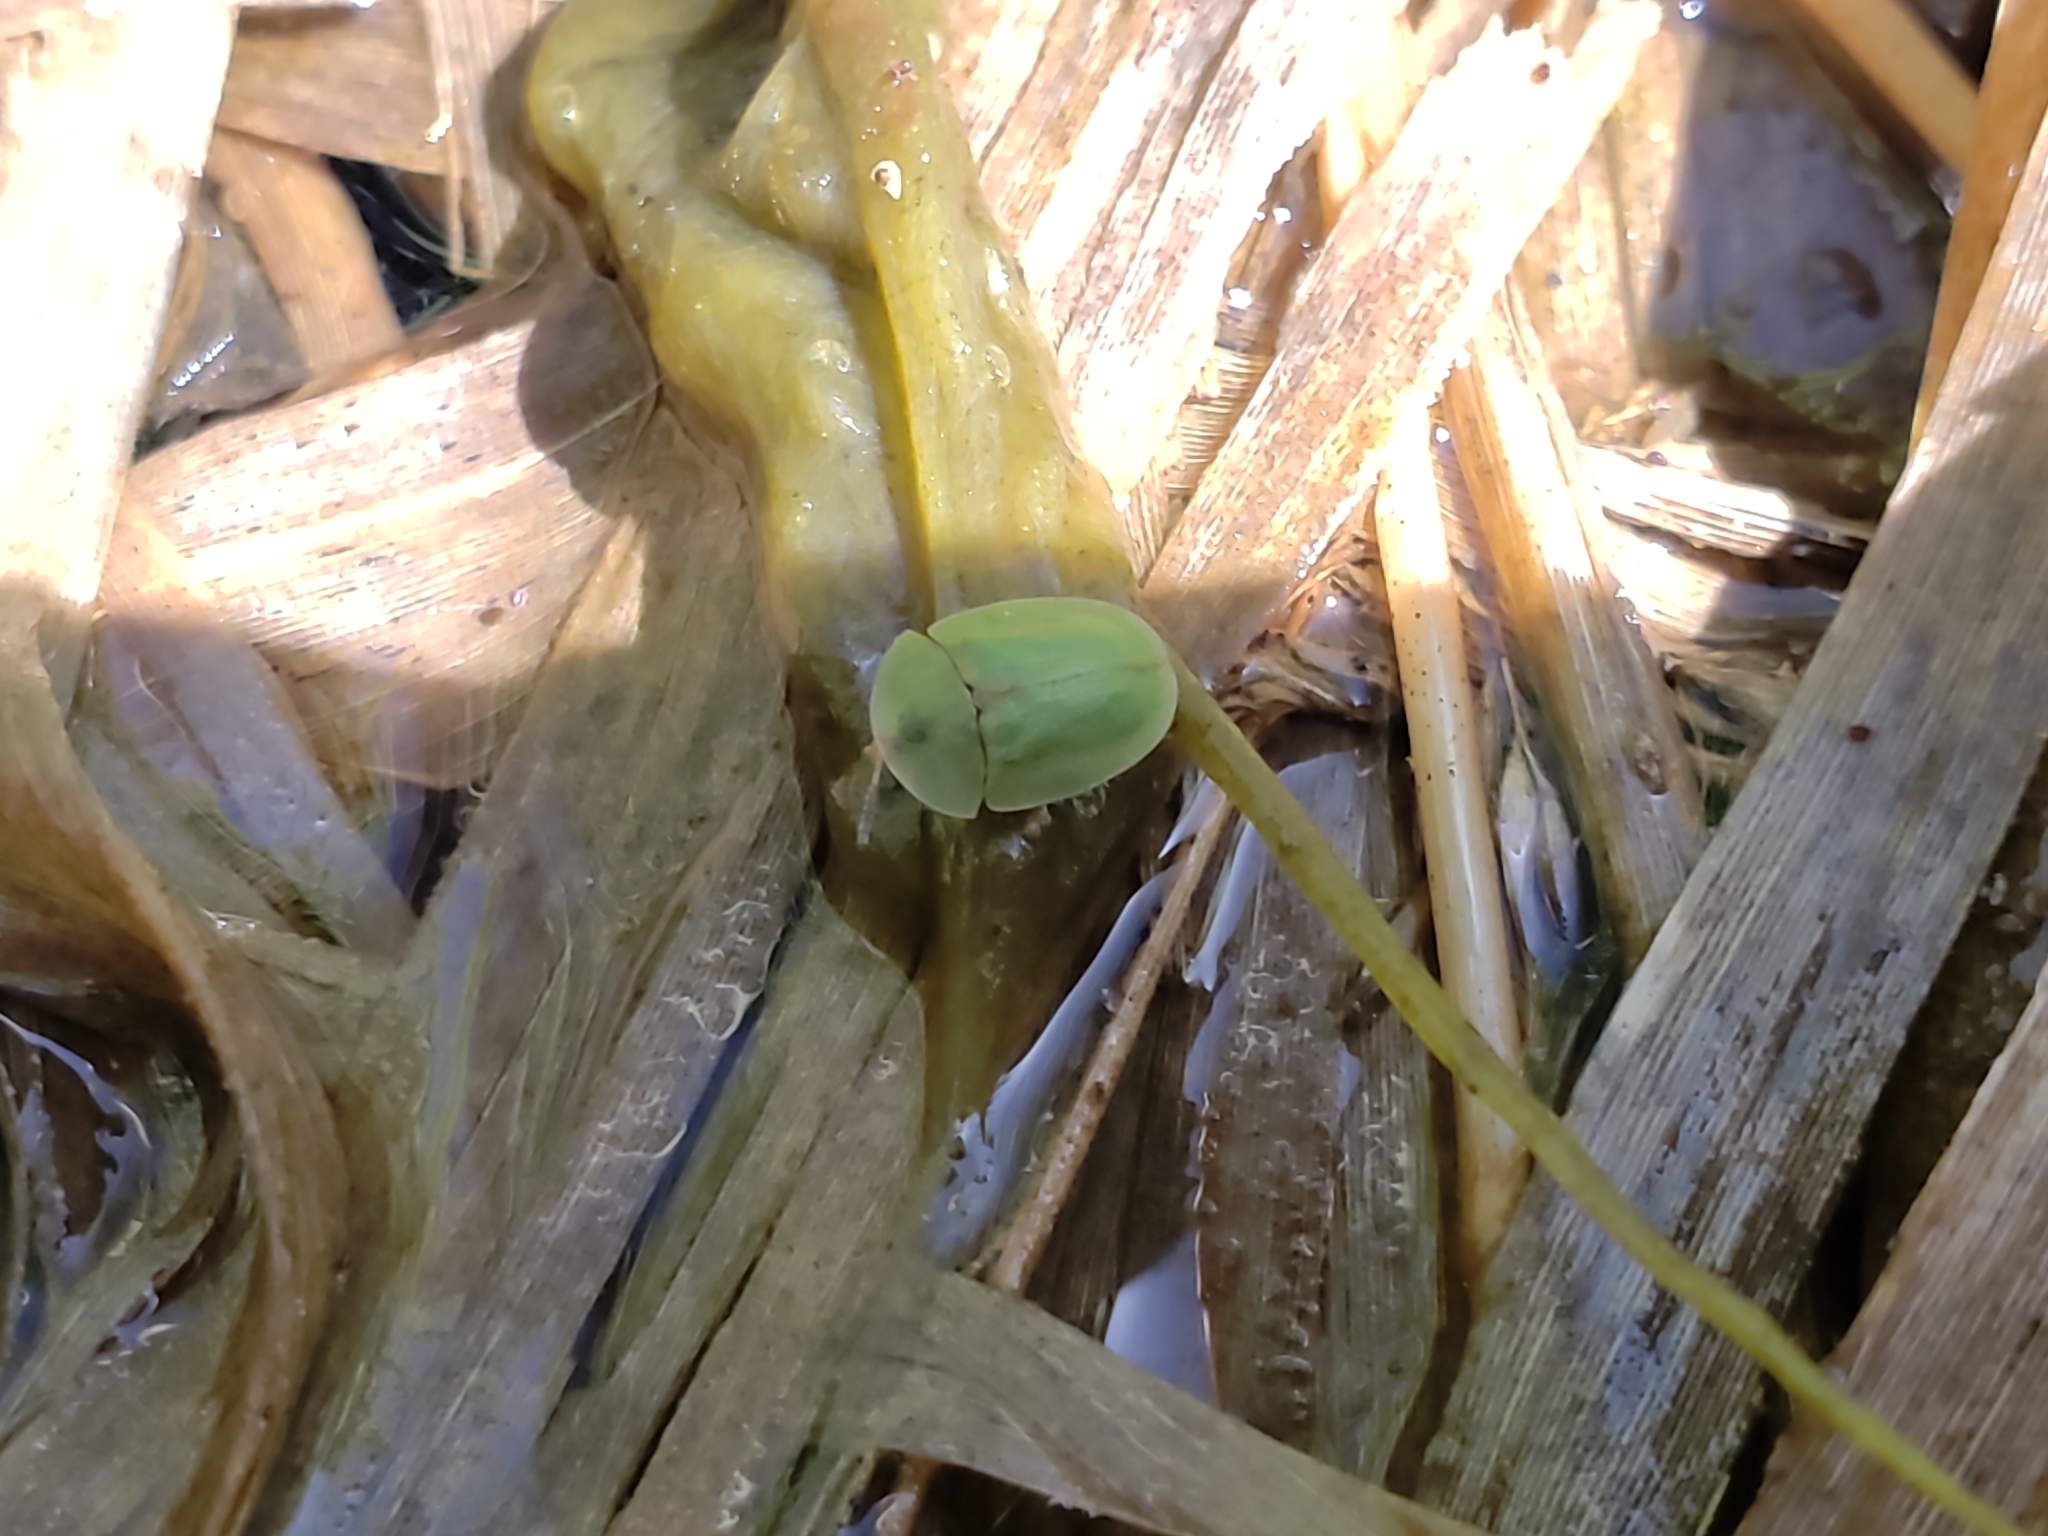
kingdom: Animalia
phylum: Arthropoda
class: Insecta
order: Coleoptera
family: Chrysomelidae
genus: Cassida
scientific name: Cassida rubiginosa
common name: Thistle tortoise beetle
